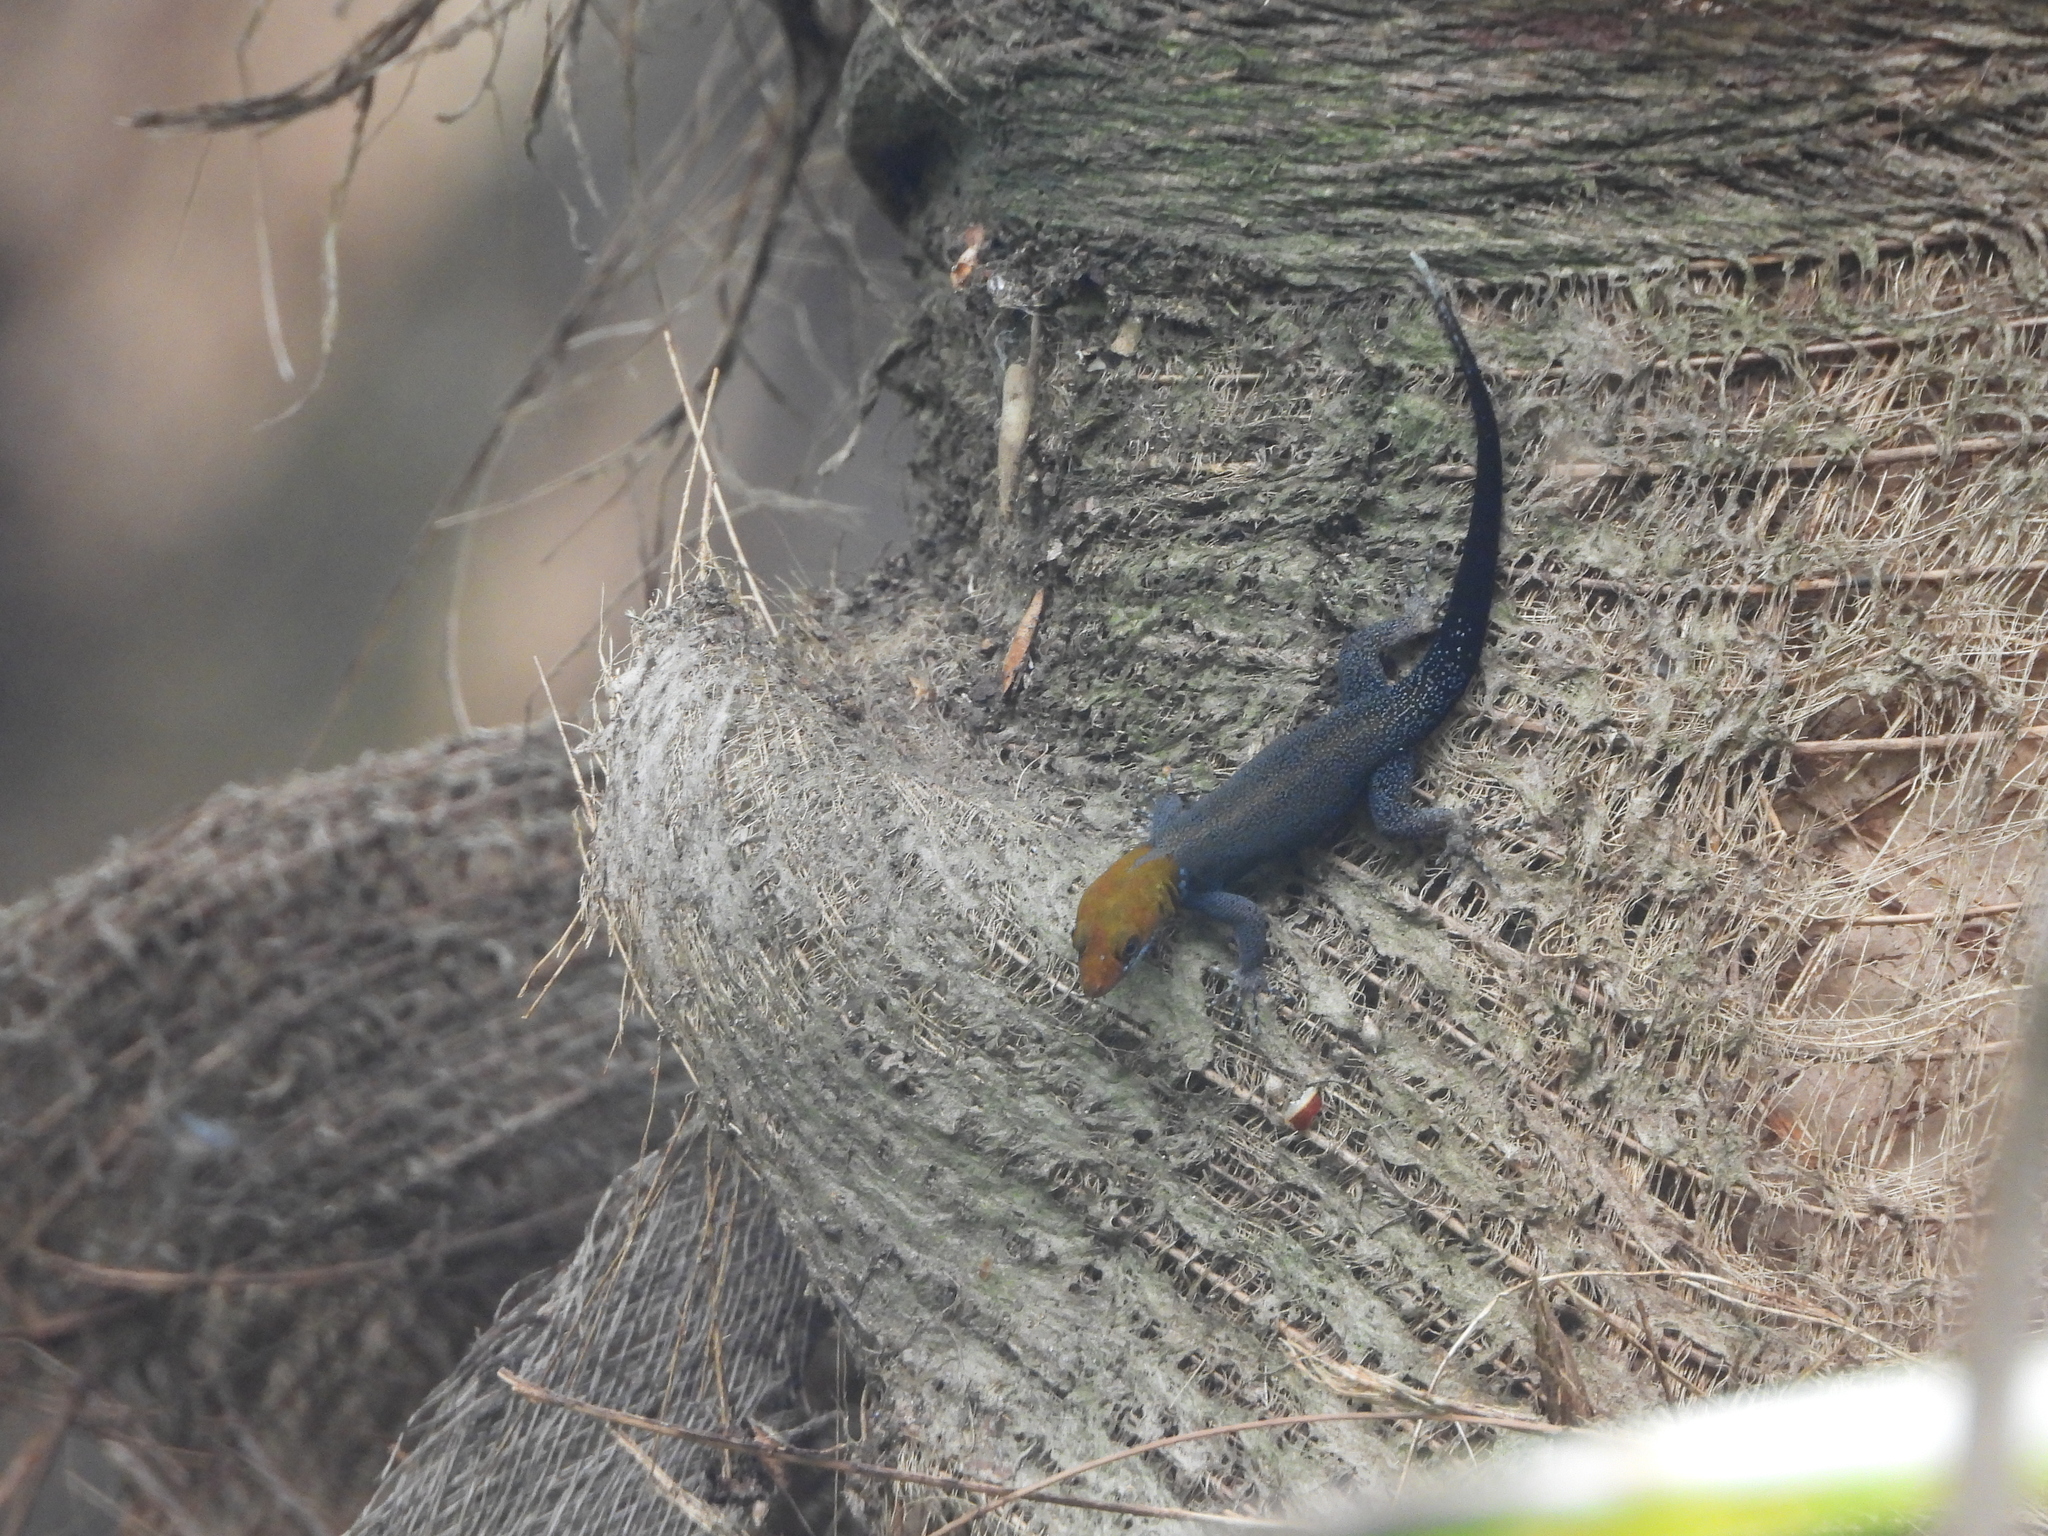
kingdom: Animalia
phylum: Chordata
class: Squamata
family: Sphaerodactylidae
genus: Gonatodes
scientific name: Gonatodes albogularis
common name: Yellow-headed gecko
